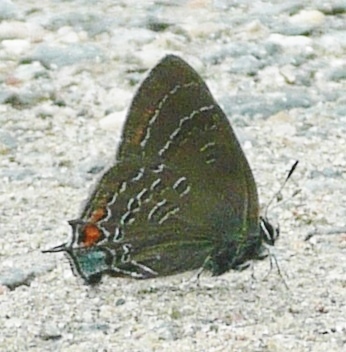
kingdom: Animalia
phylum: Arthropoda
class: Insecta
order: Lepidoptera
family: Lycaenidae
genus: Satyrium
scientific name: Satyrium calanus
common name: Banded hairstreak
